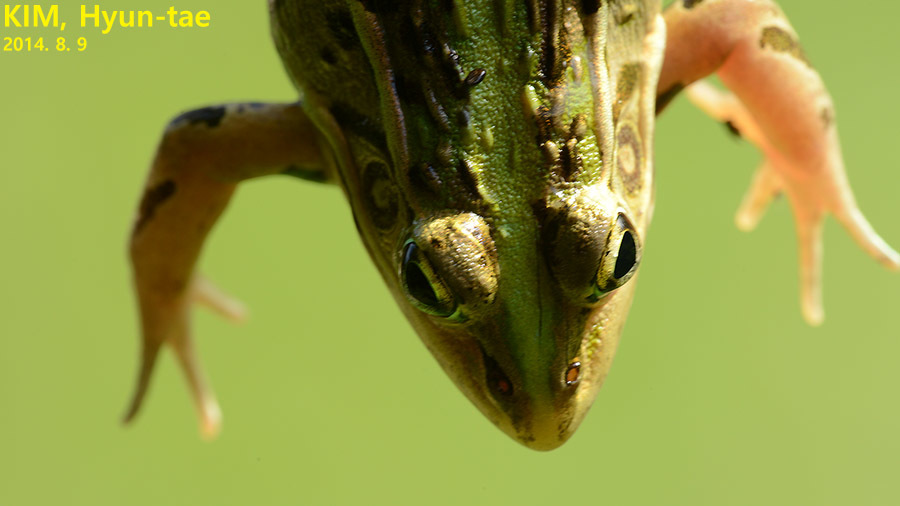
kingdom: Animalia
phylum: Chordata
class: Amphibia
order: Anura
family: Ranidae
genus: Pelophylax
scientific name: Pelophylax nigromaculatus
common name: Black-spotted pond frog
